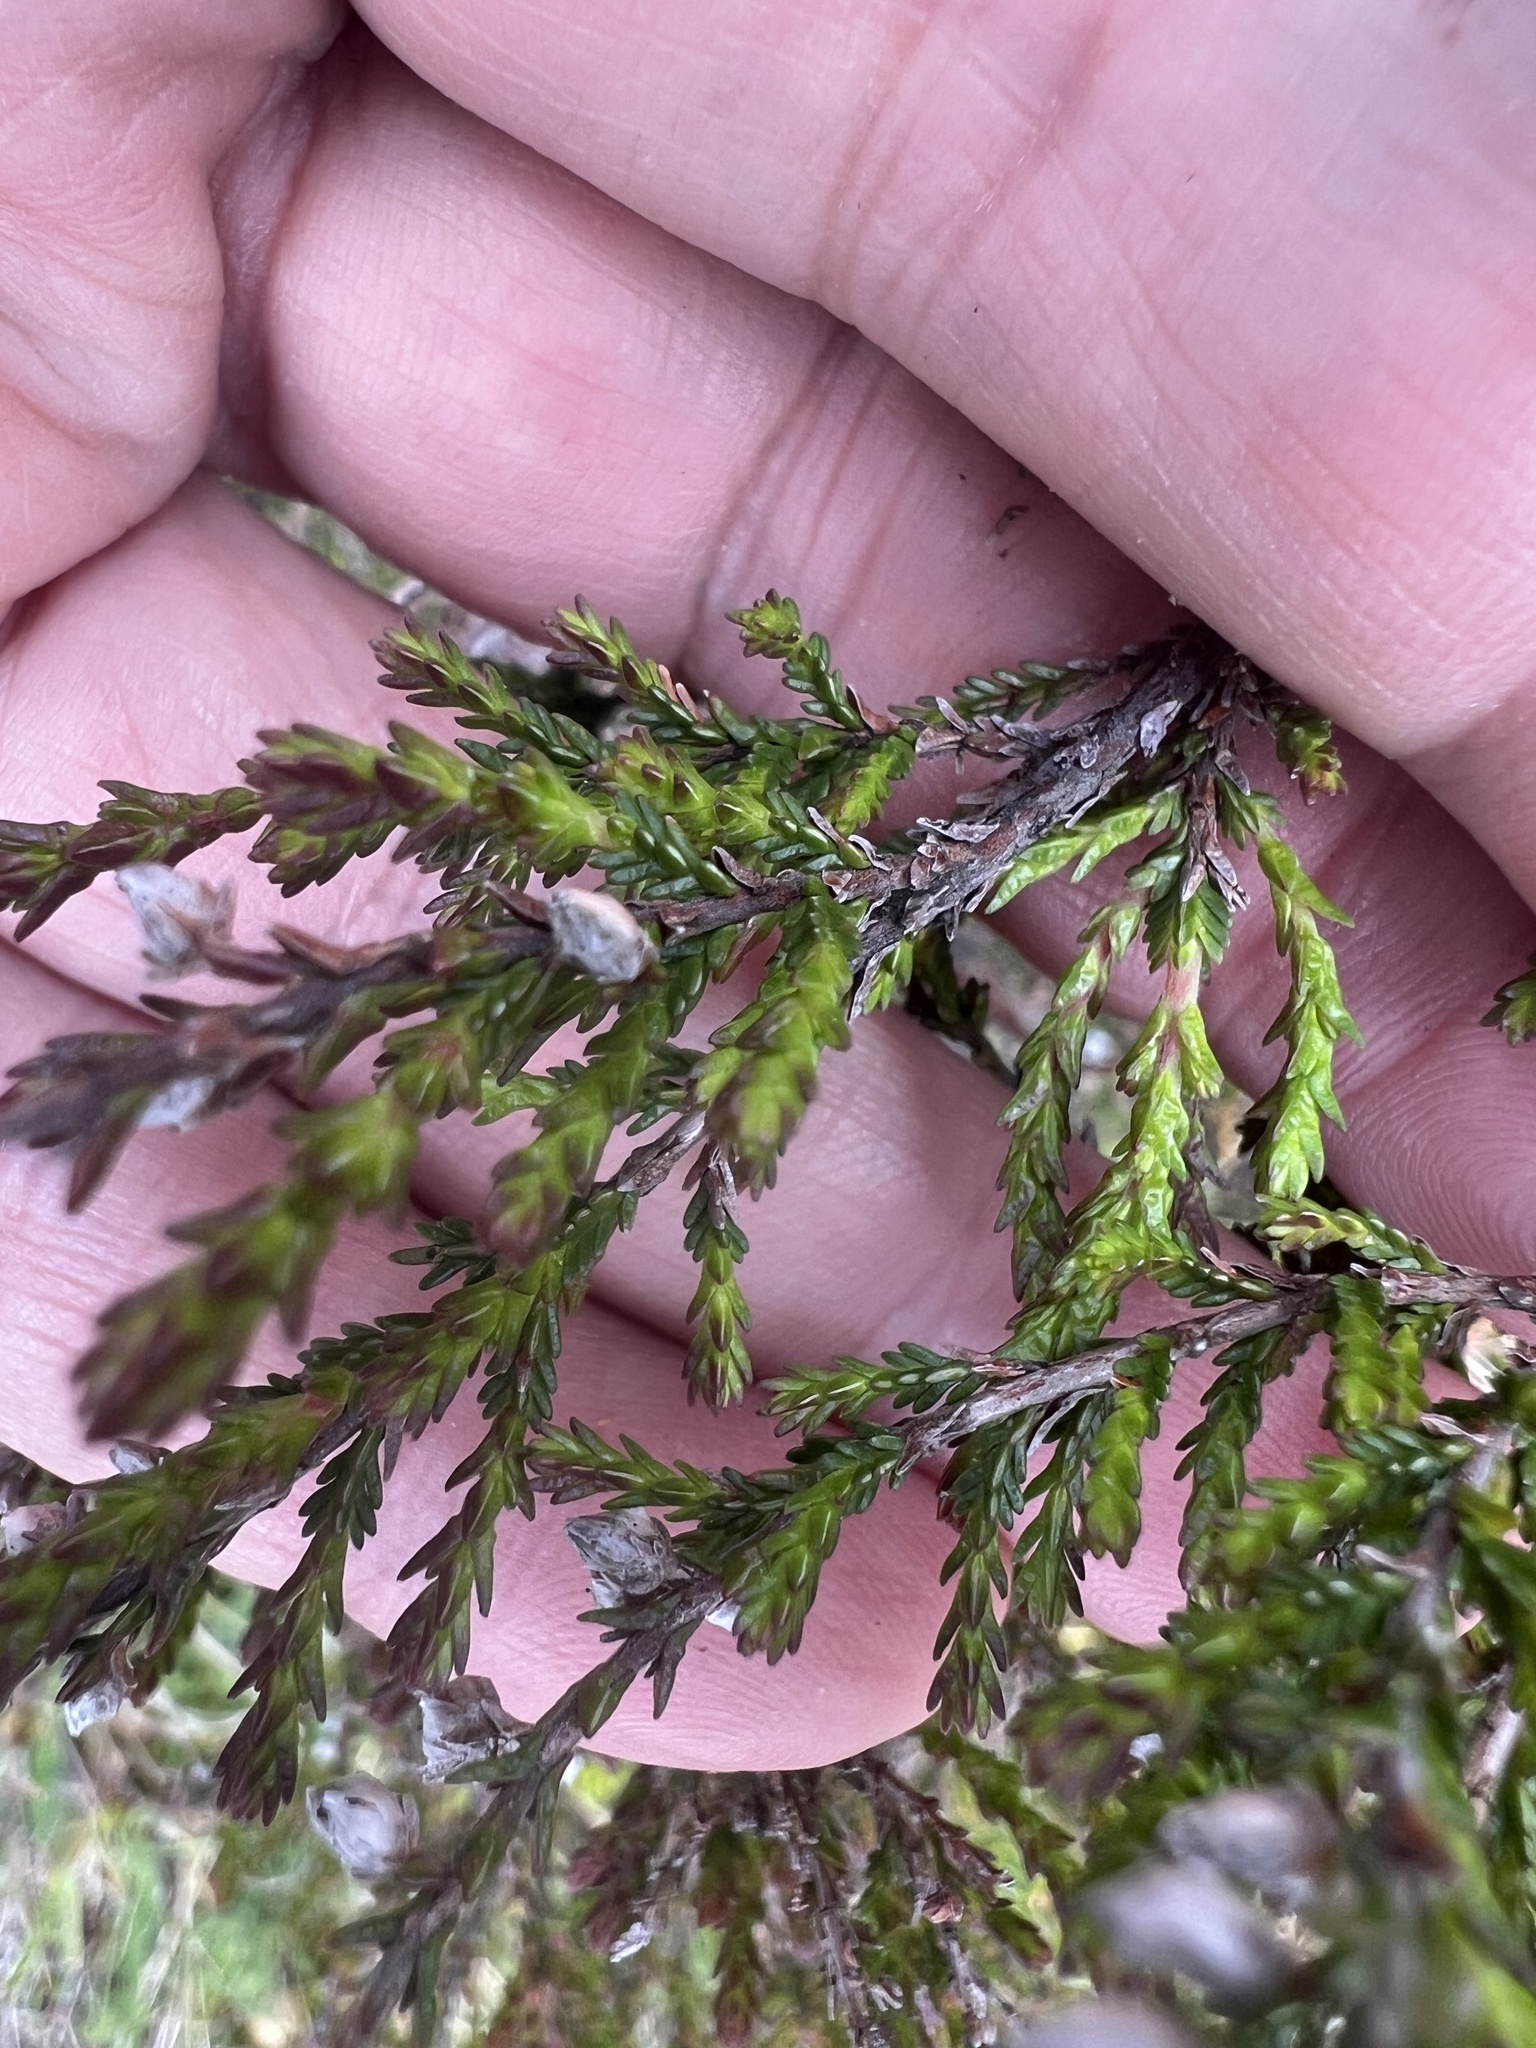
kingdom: Plantae
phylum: Tracheophyta
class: Magnoliopsida
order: Ericales
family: Ericaceae
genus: Calluna
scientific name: Calluna vulgaris
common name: Heather
